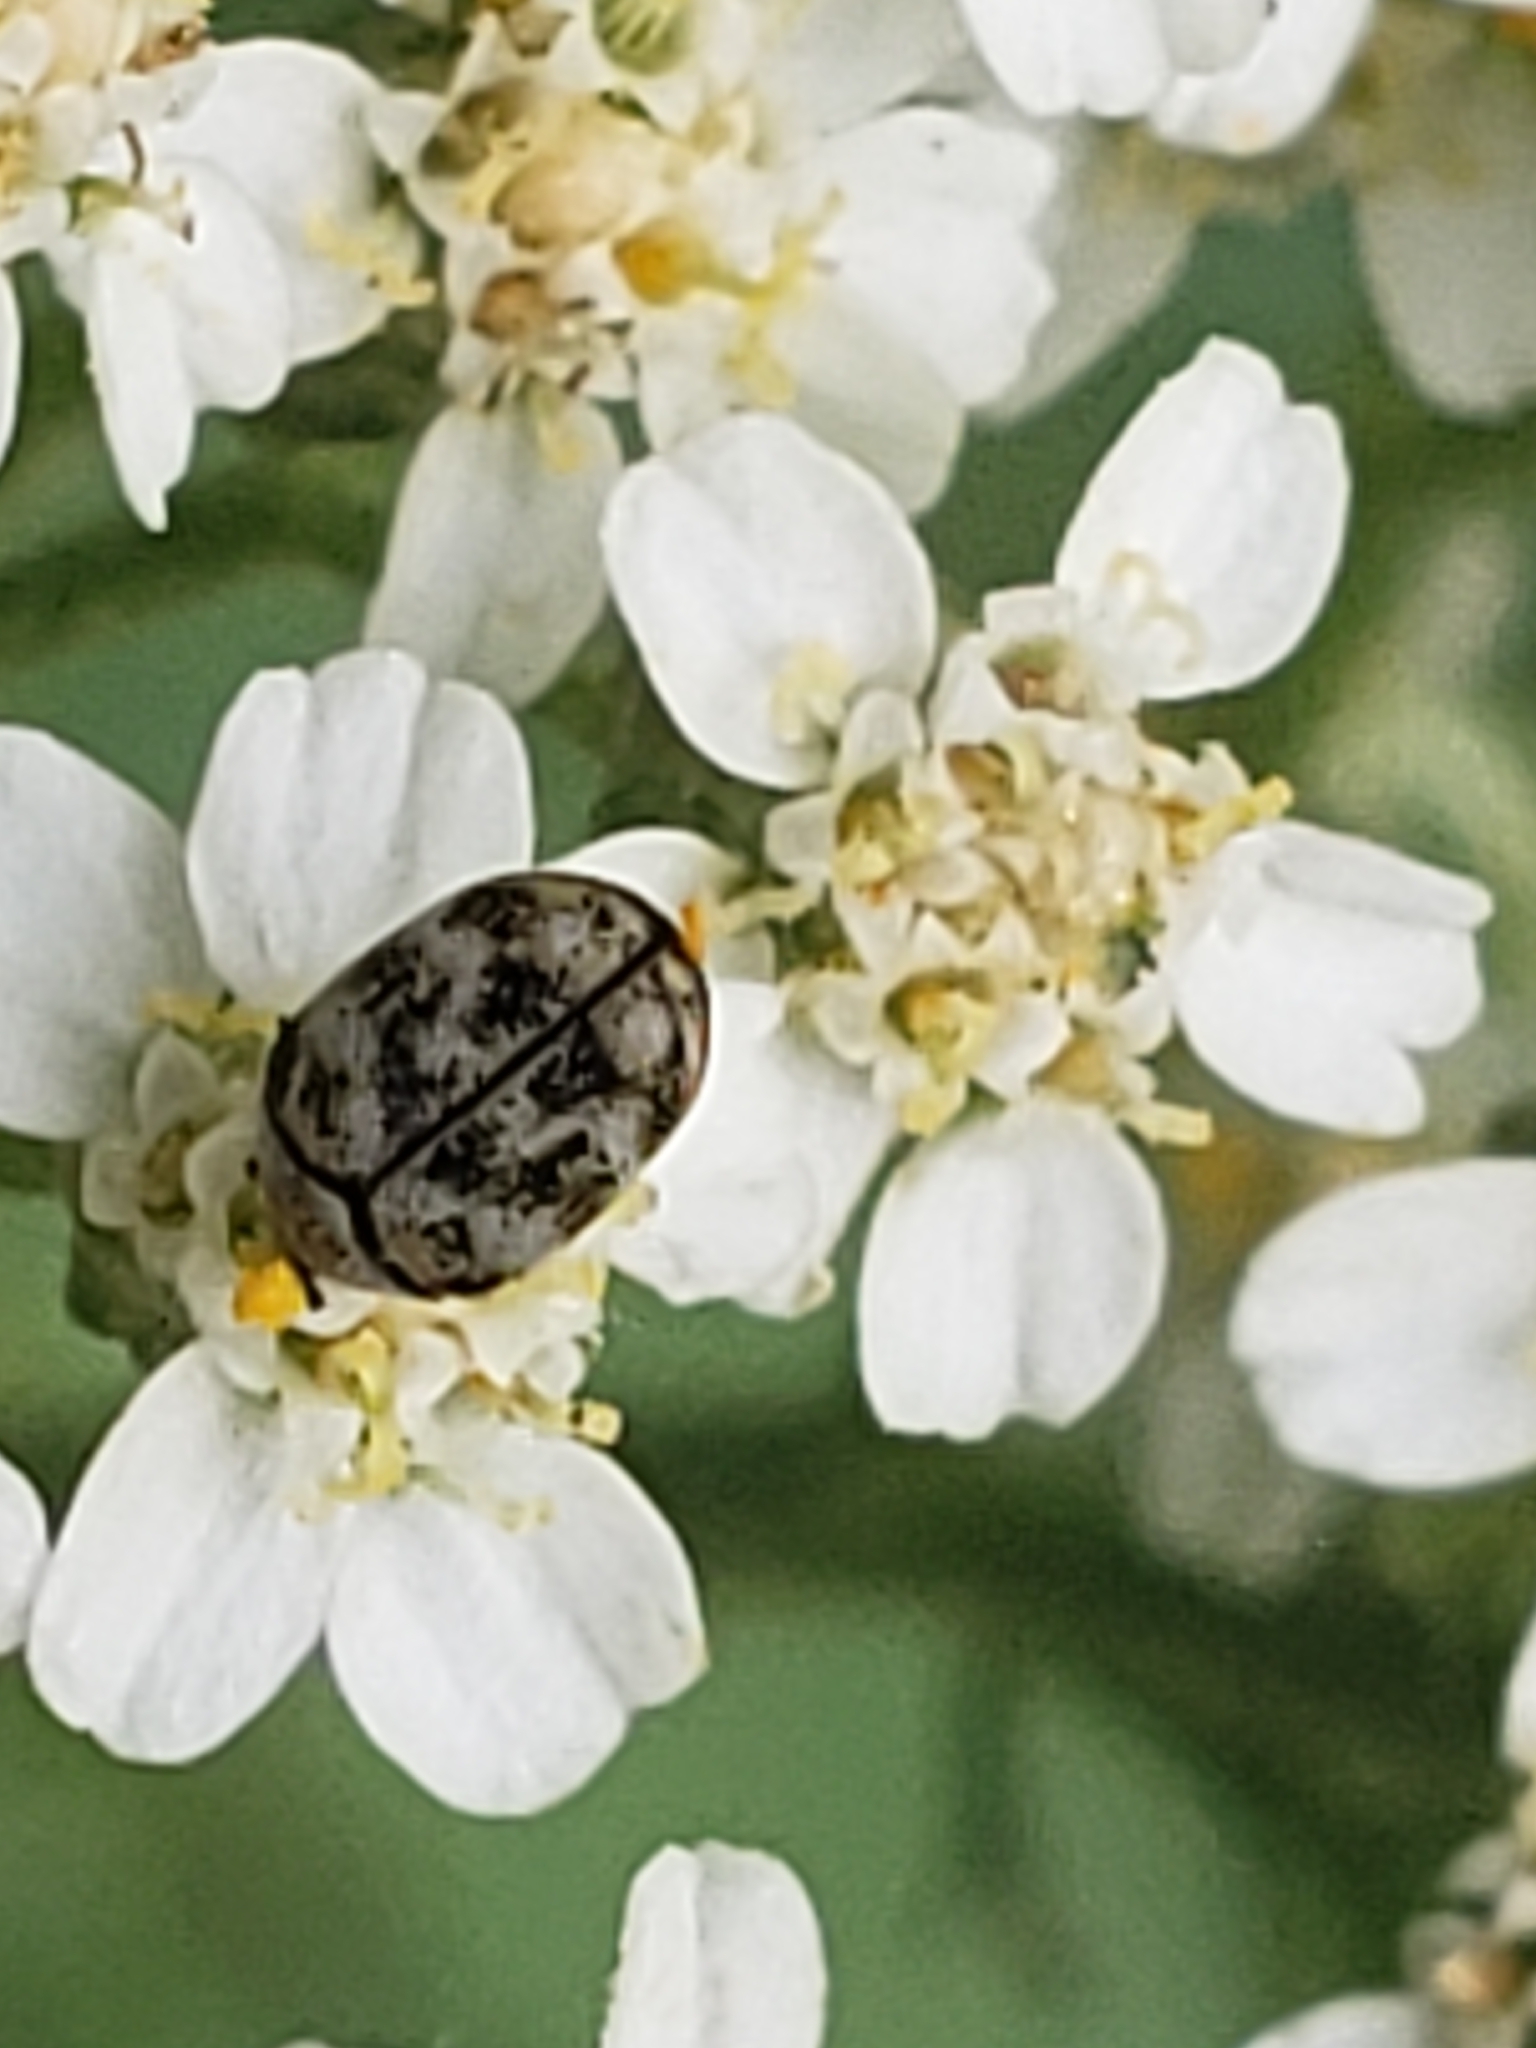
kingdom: Animalia
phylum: Arthropoda
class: Insecta
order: Coleoptera
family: Dermestidae
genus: Anthrenus
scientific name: Anthrenus verbasci
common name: Varied carpet beetle
